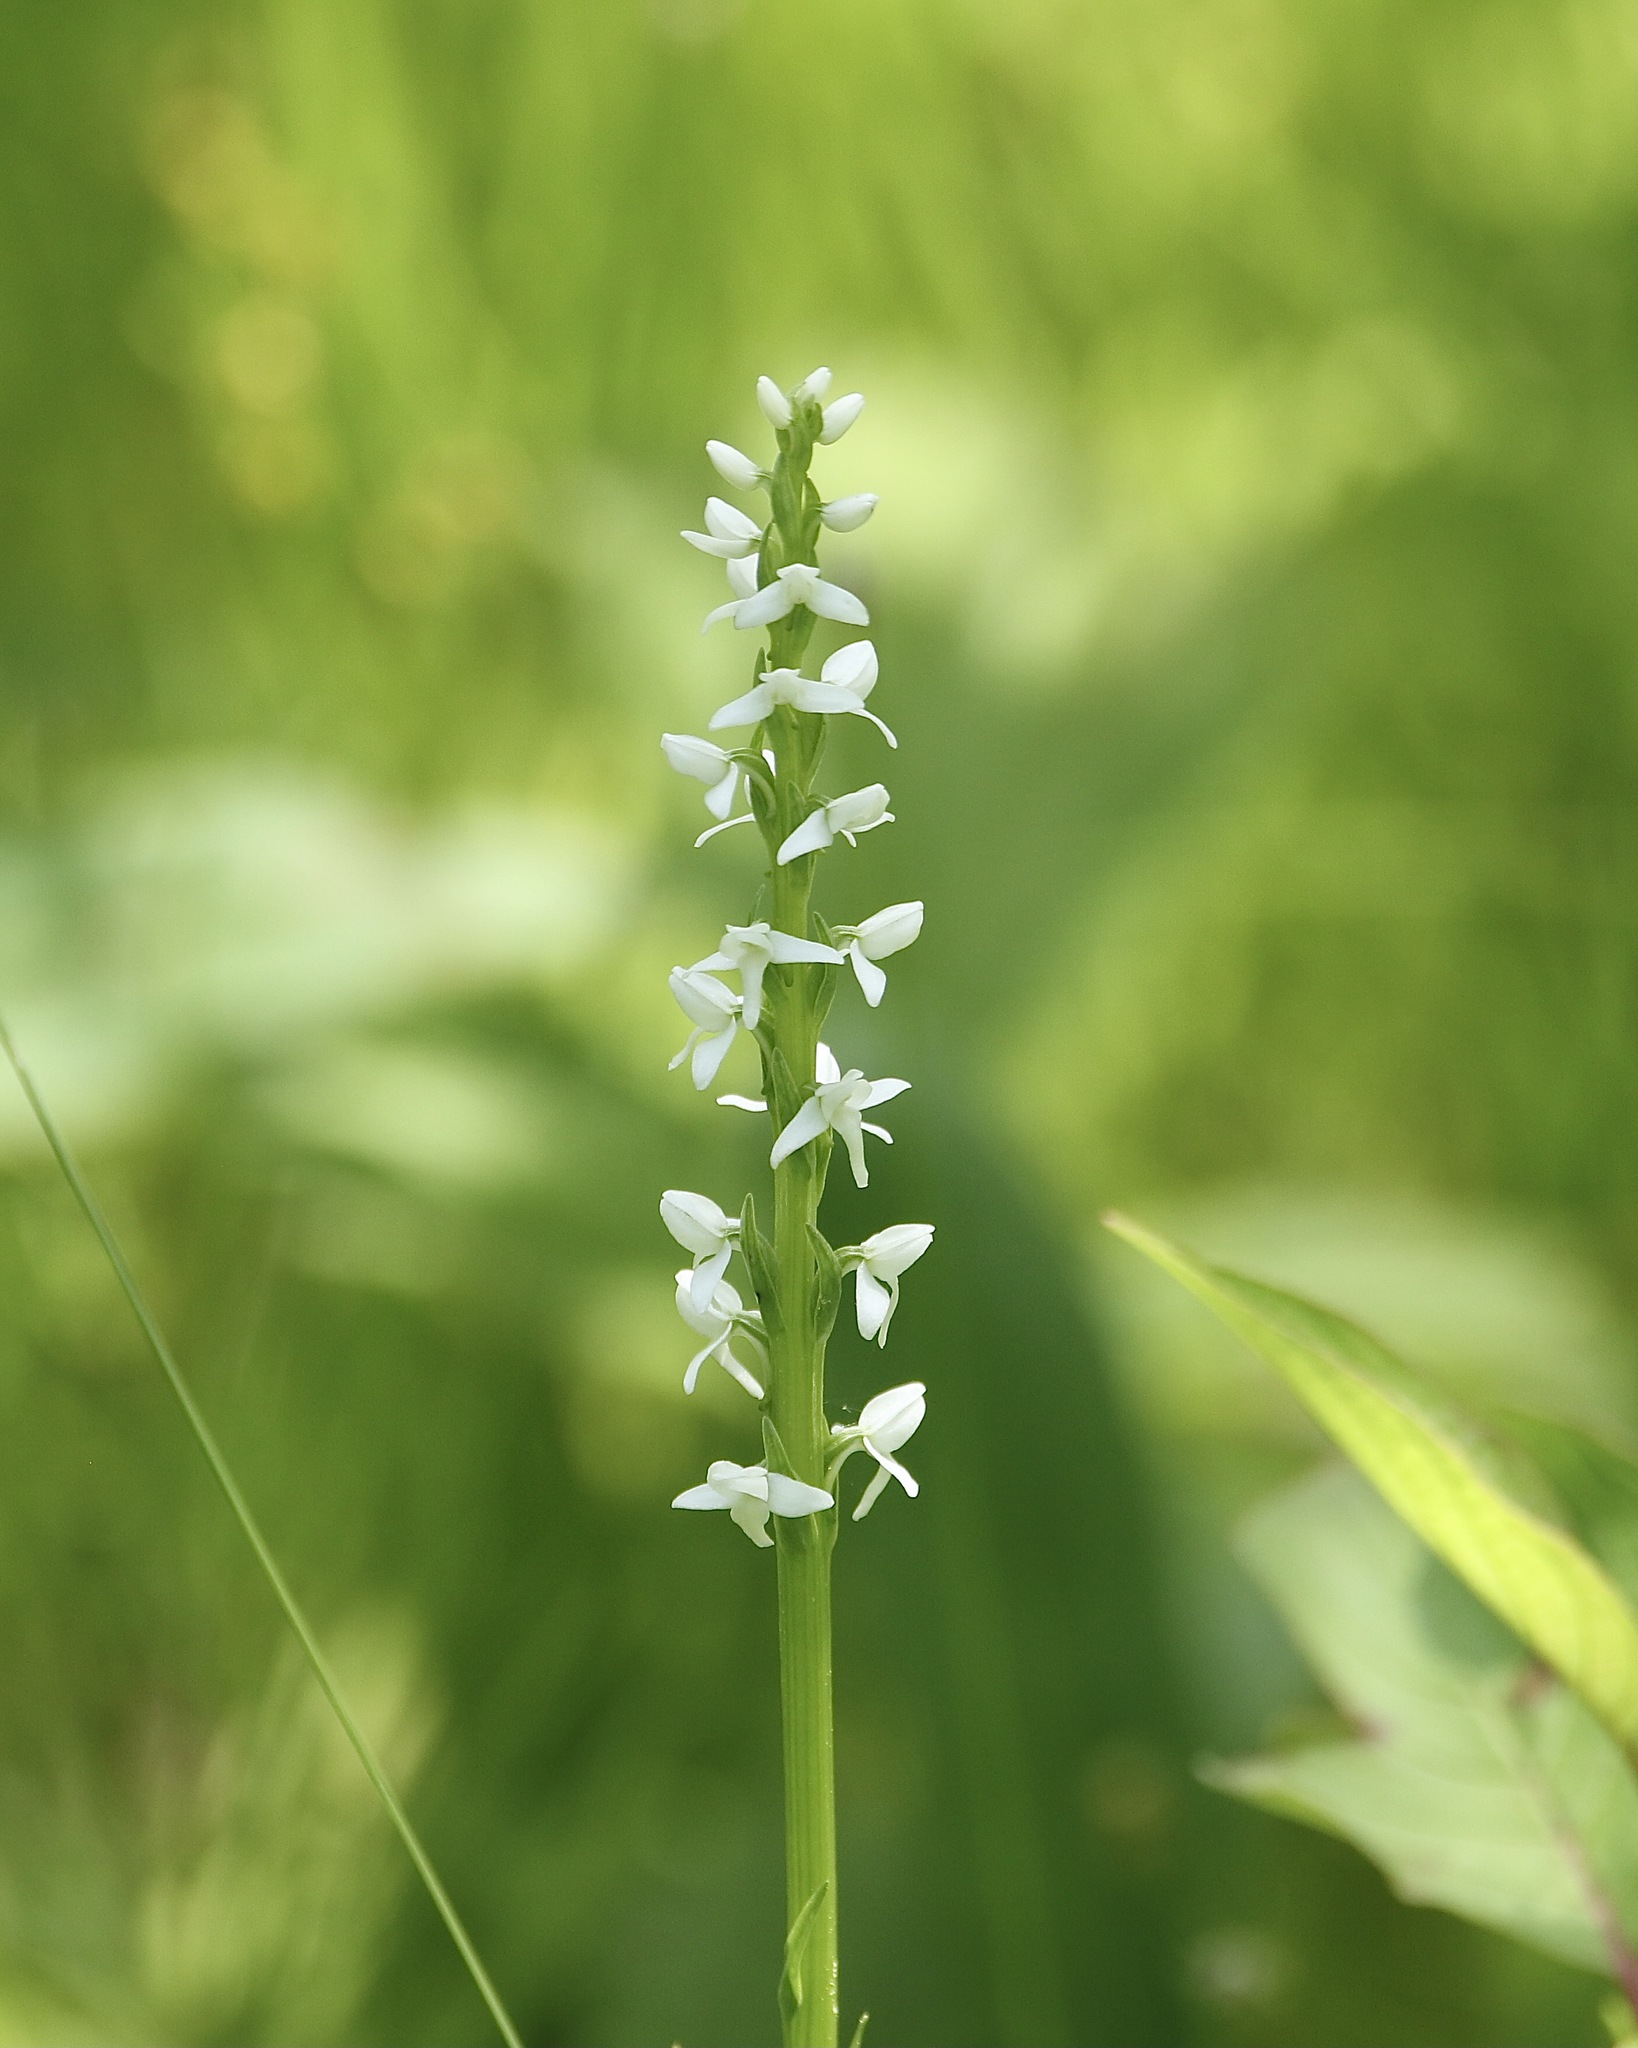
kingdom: Plantae
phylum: Tracheophyta
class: Liliopsida
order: Asparagales
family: Orchidaceae
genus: Platanthera
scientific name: Platanthera dilatata
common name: Bog candles
